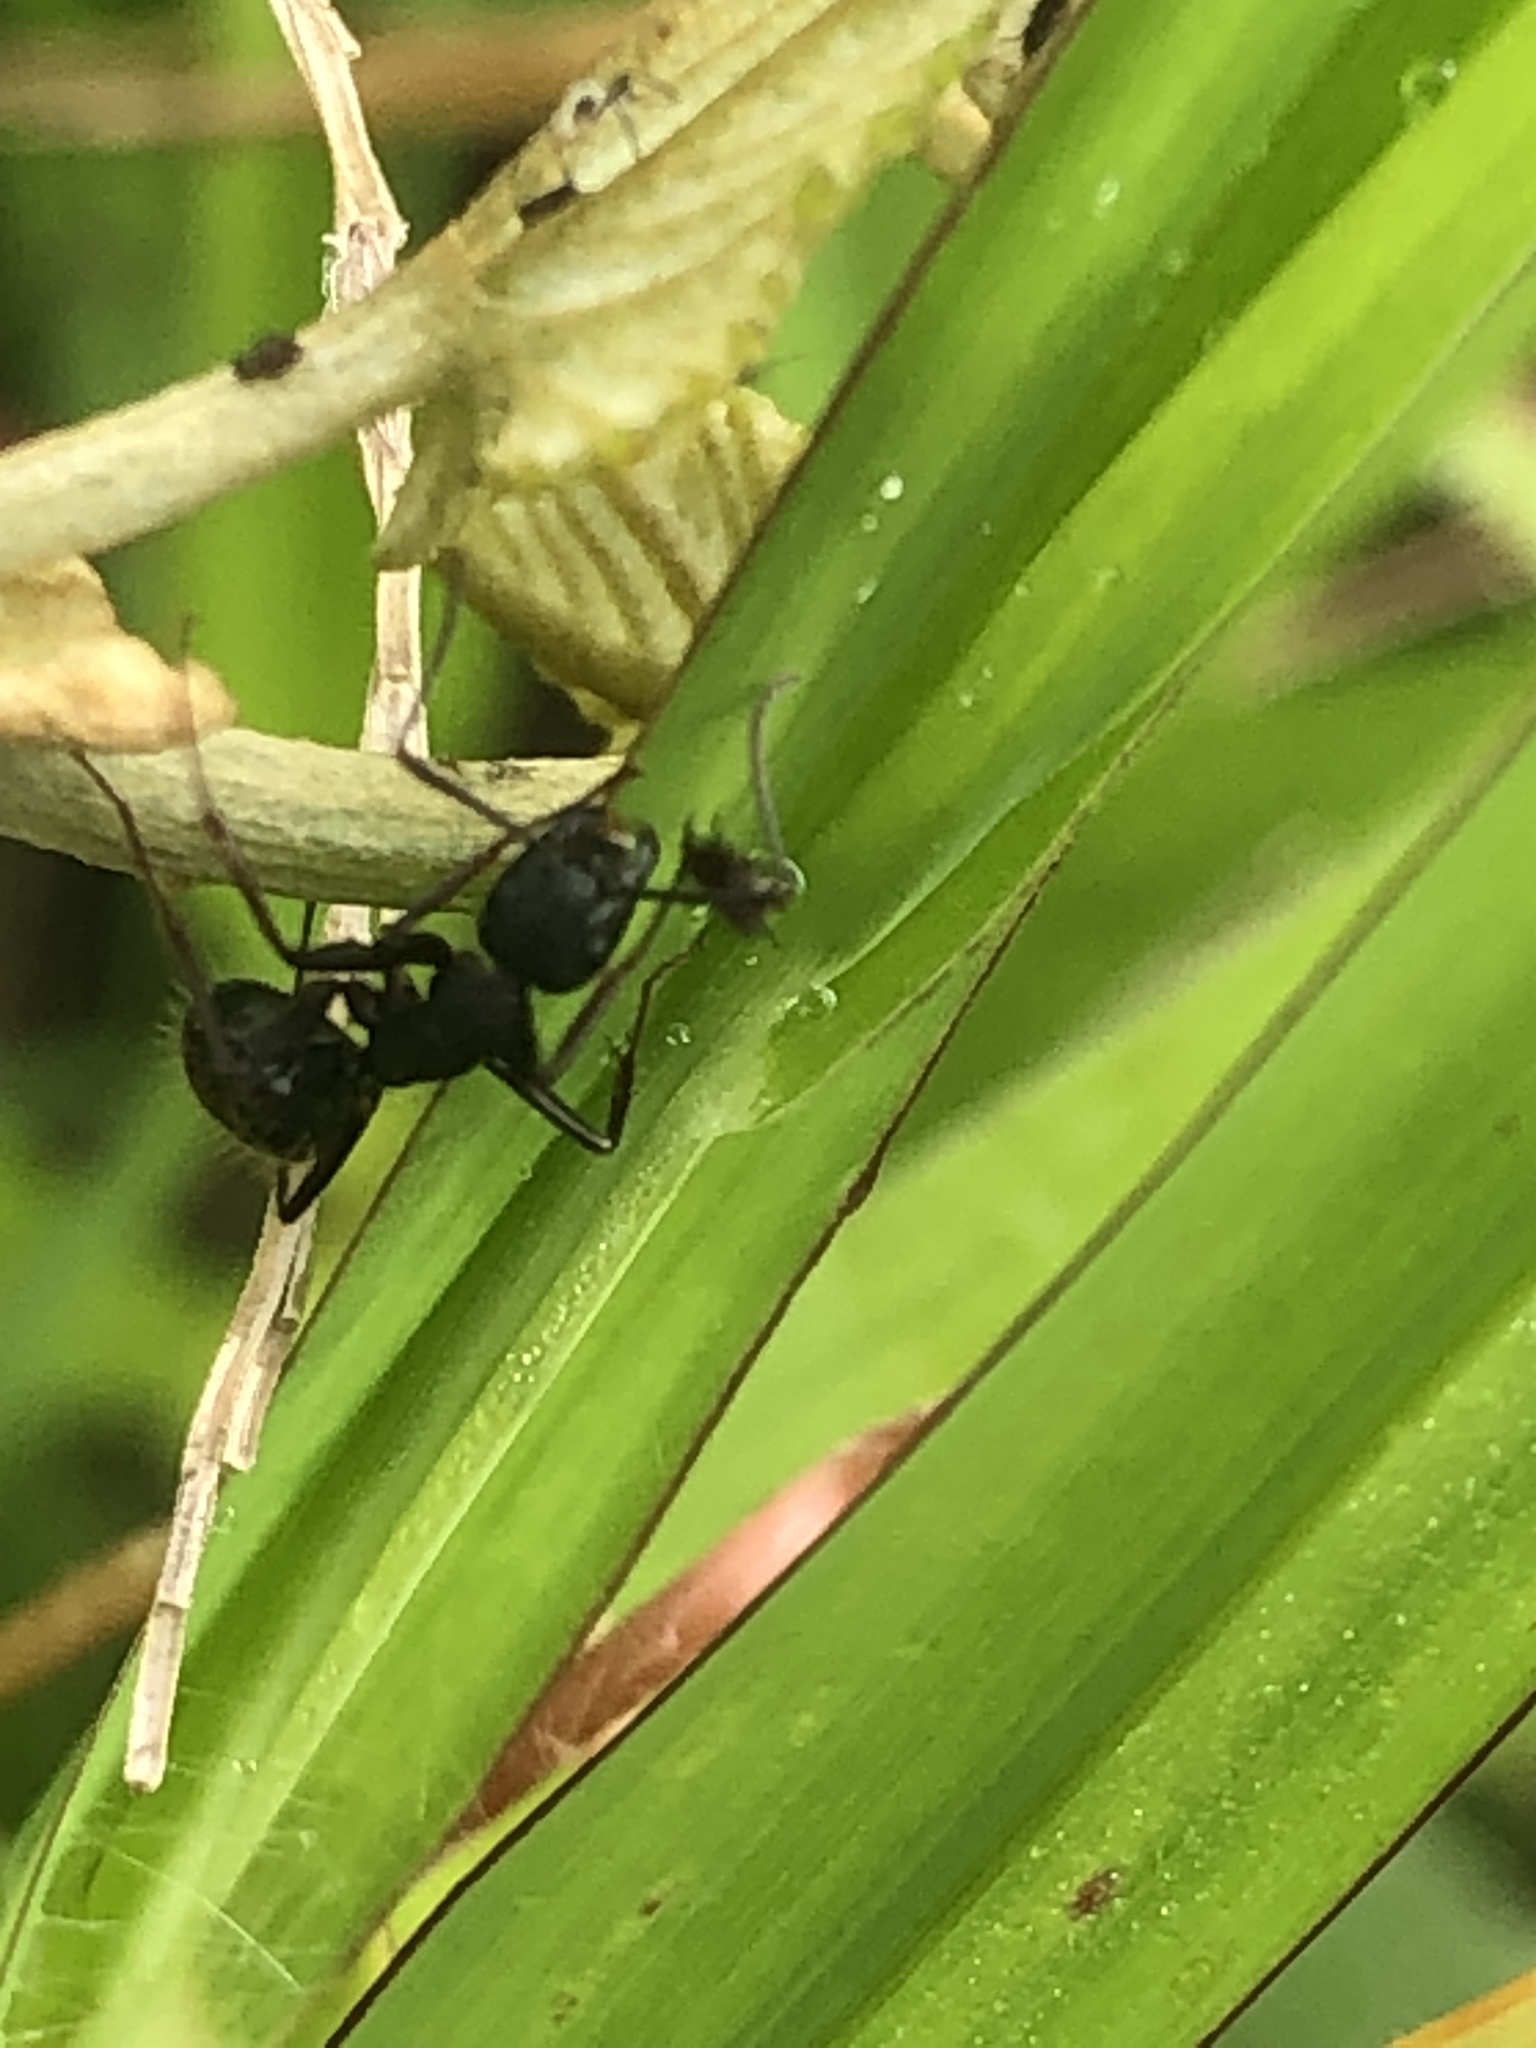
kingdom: Animalia
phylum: Arthropoda
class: Insecta
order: Hymenoptera
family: Formicidae
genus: Camponotus
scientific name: Camponotus pennsylvanicus
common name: Black carpenter ant
